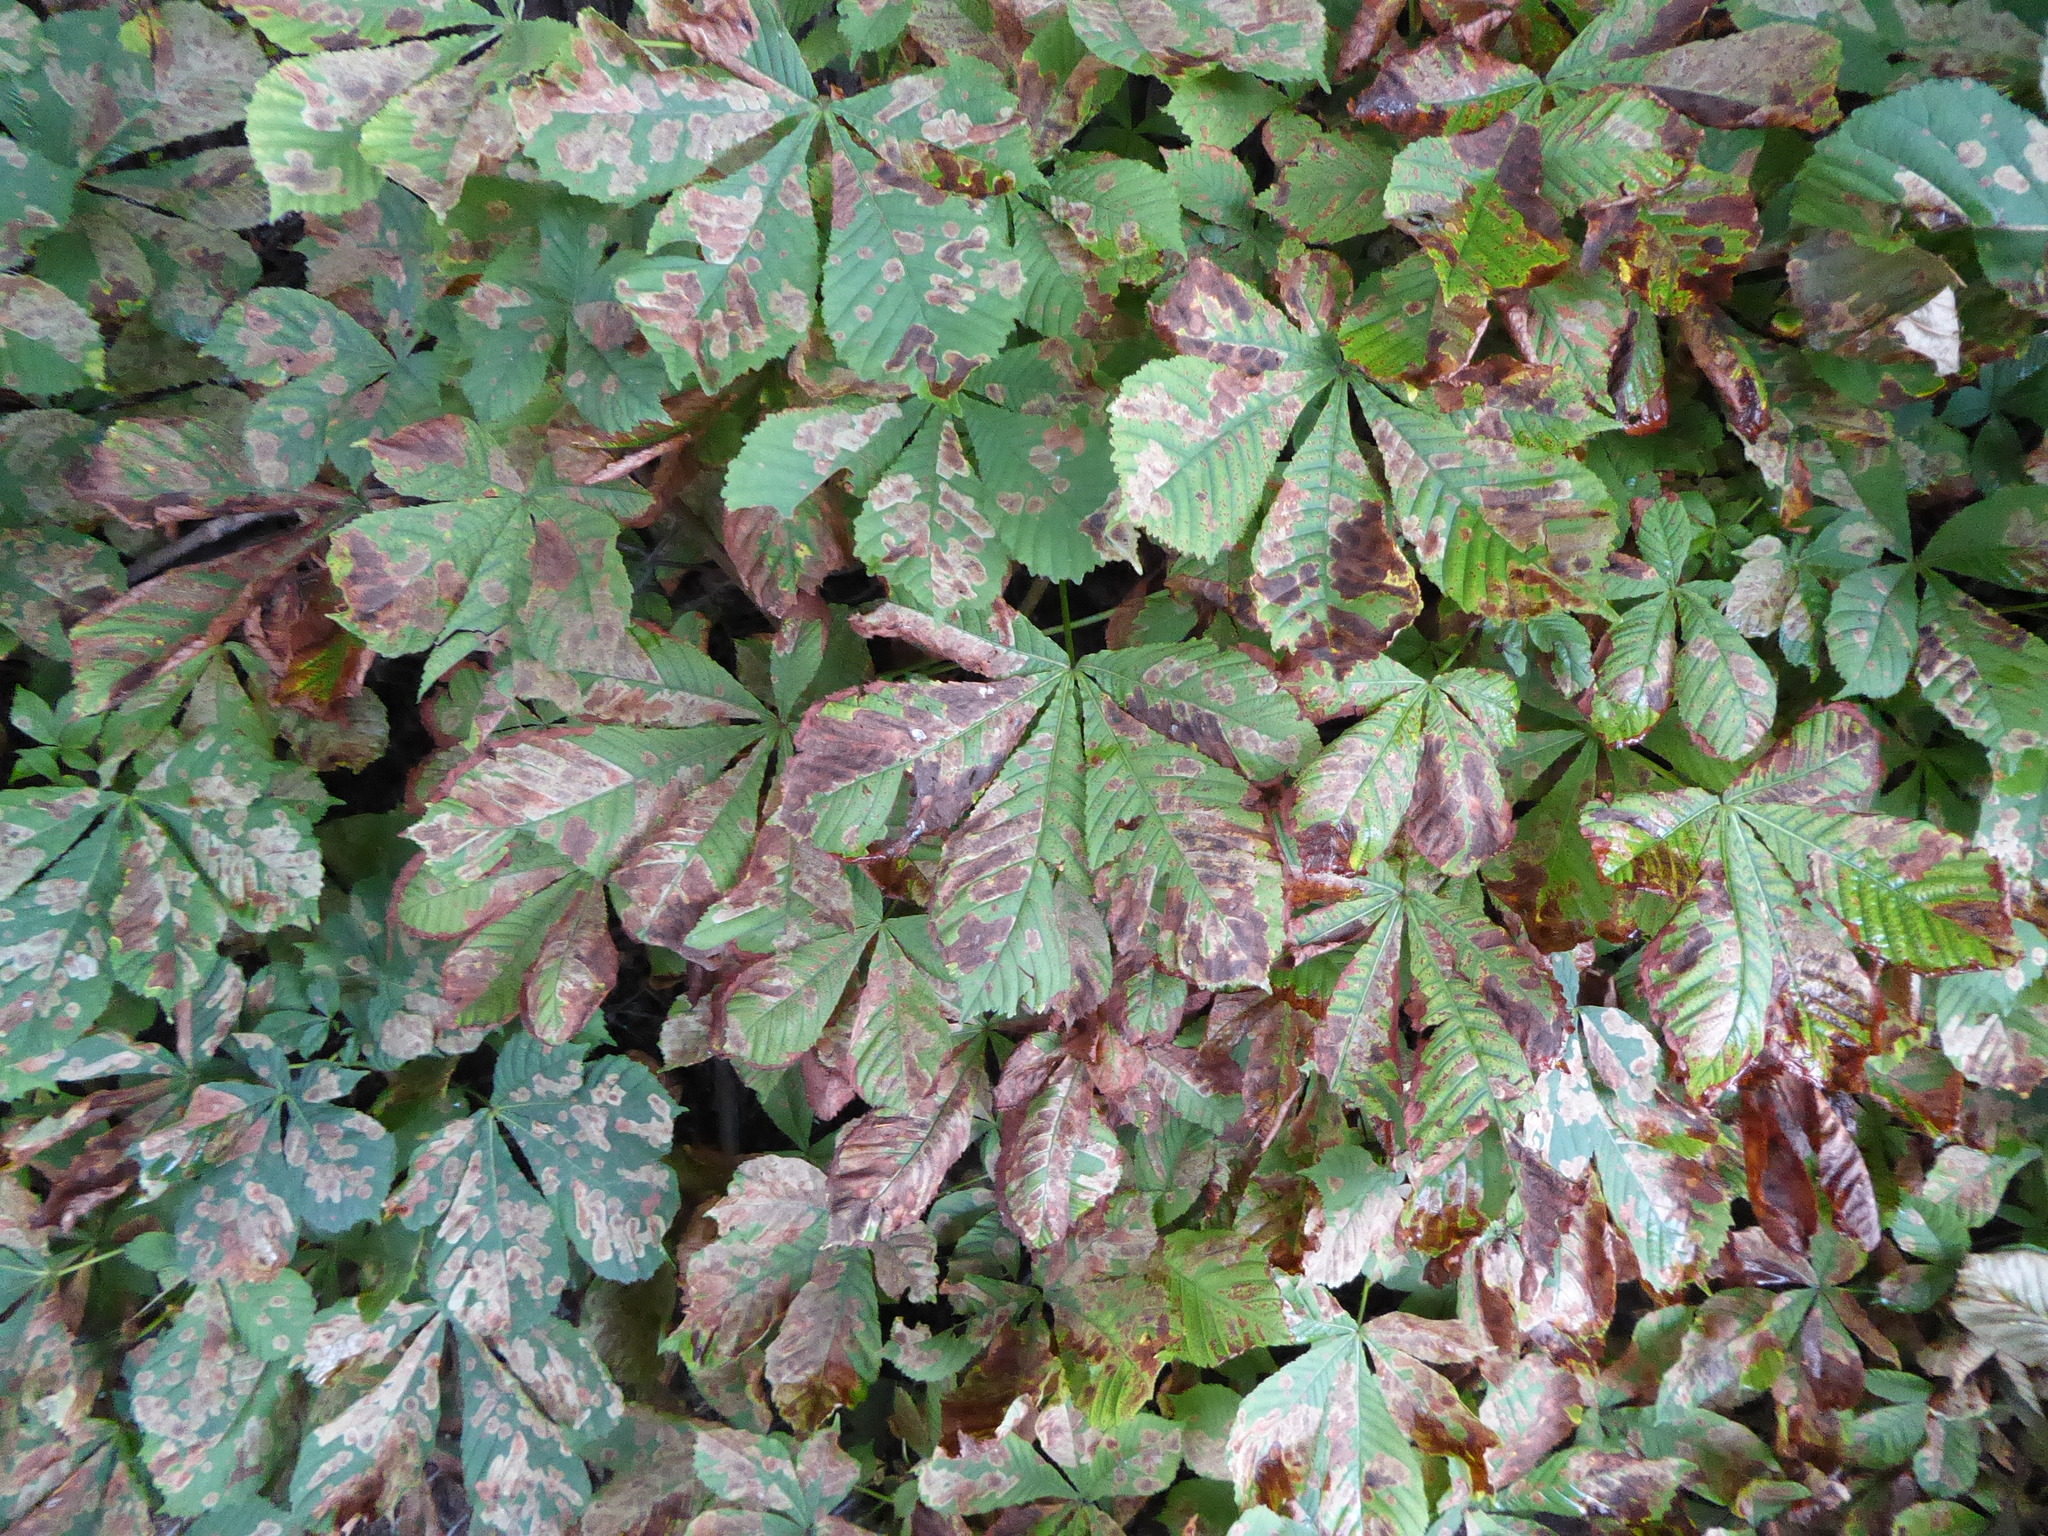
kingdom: Animalia
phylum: Arthropoda
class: Insecta
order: Lepidoptera
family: Gracillariidae
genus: Cameraria
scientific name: Cameraria ohridella
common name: Horse-chestnut leaf-miner
